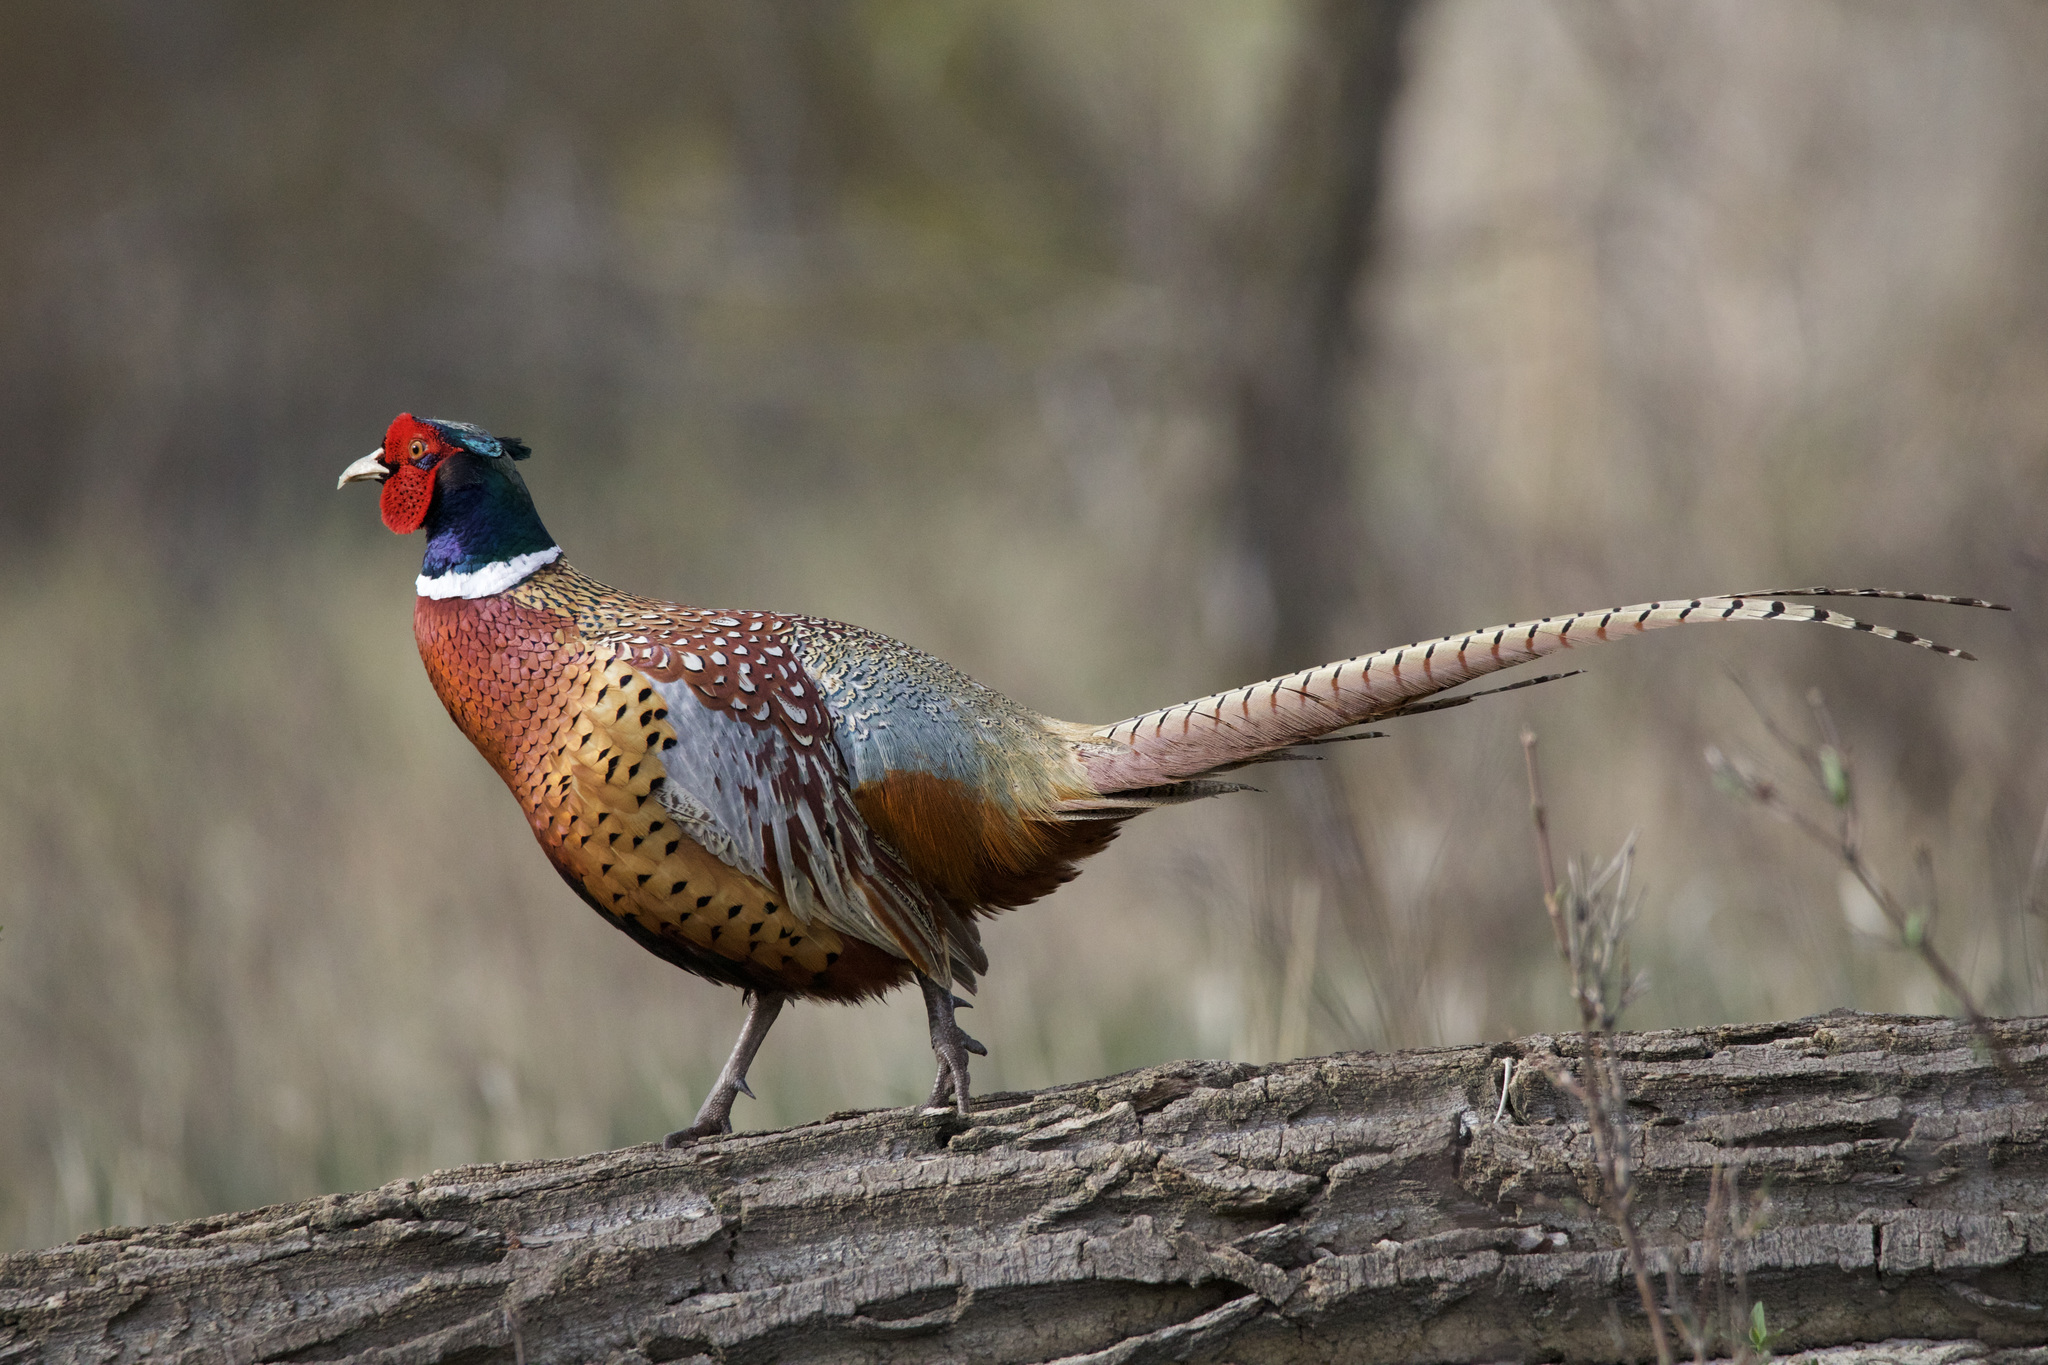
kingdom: Animalia
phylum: Chordata
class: Aves
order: Galliformes
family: Phasianidae
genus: Phasianus
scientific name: Phasianus colchicus
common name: Common pheasant
